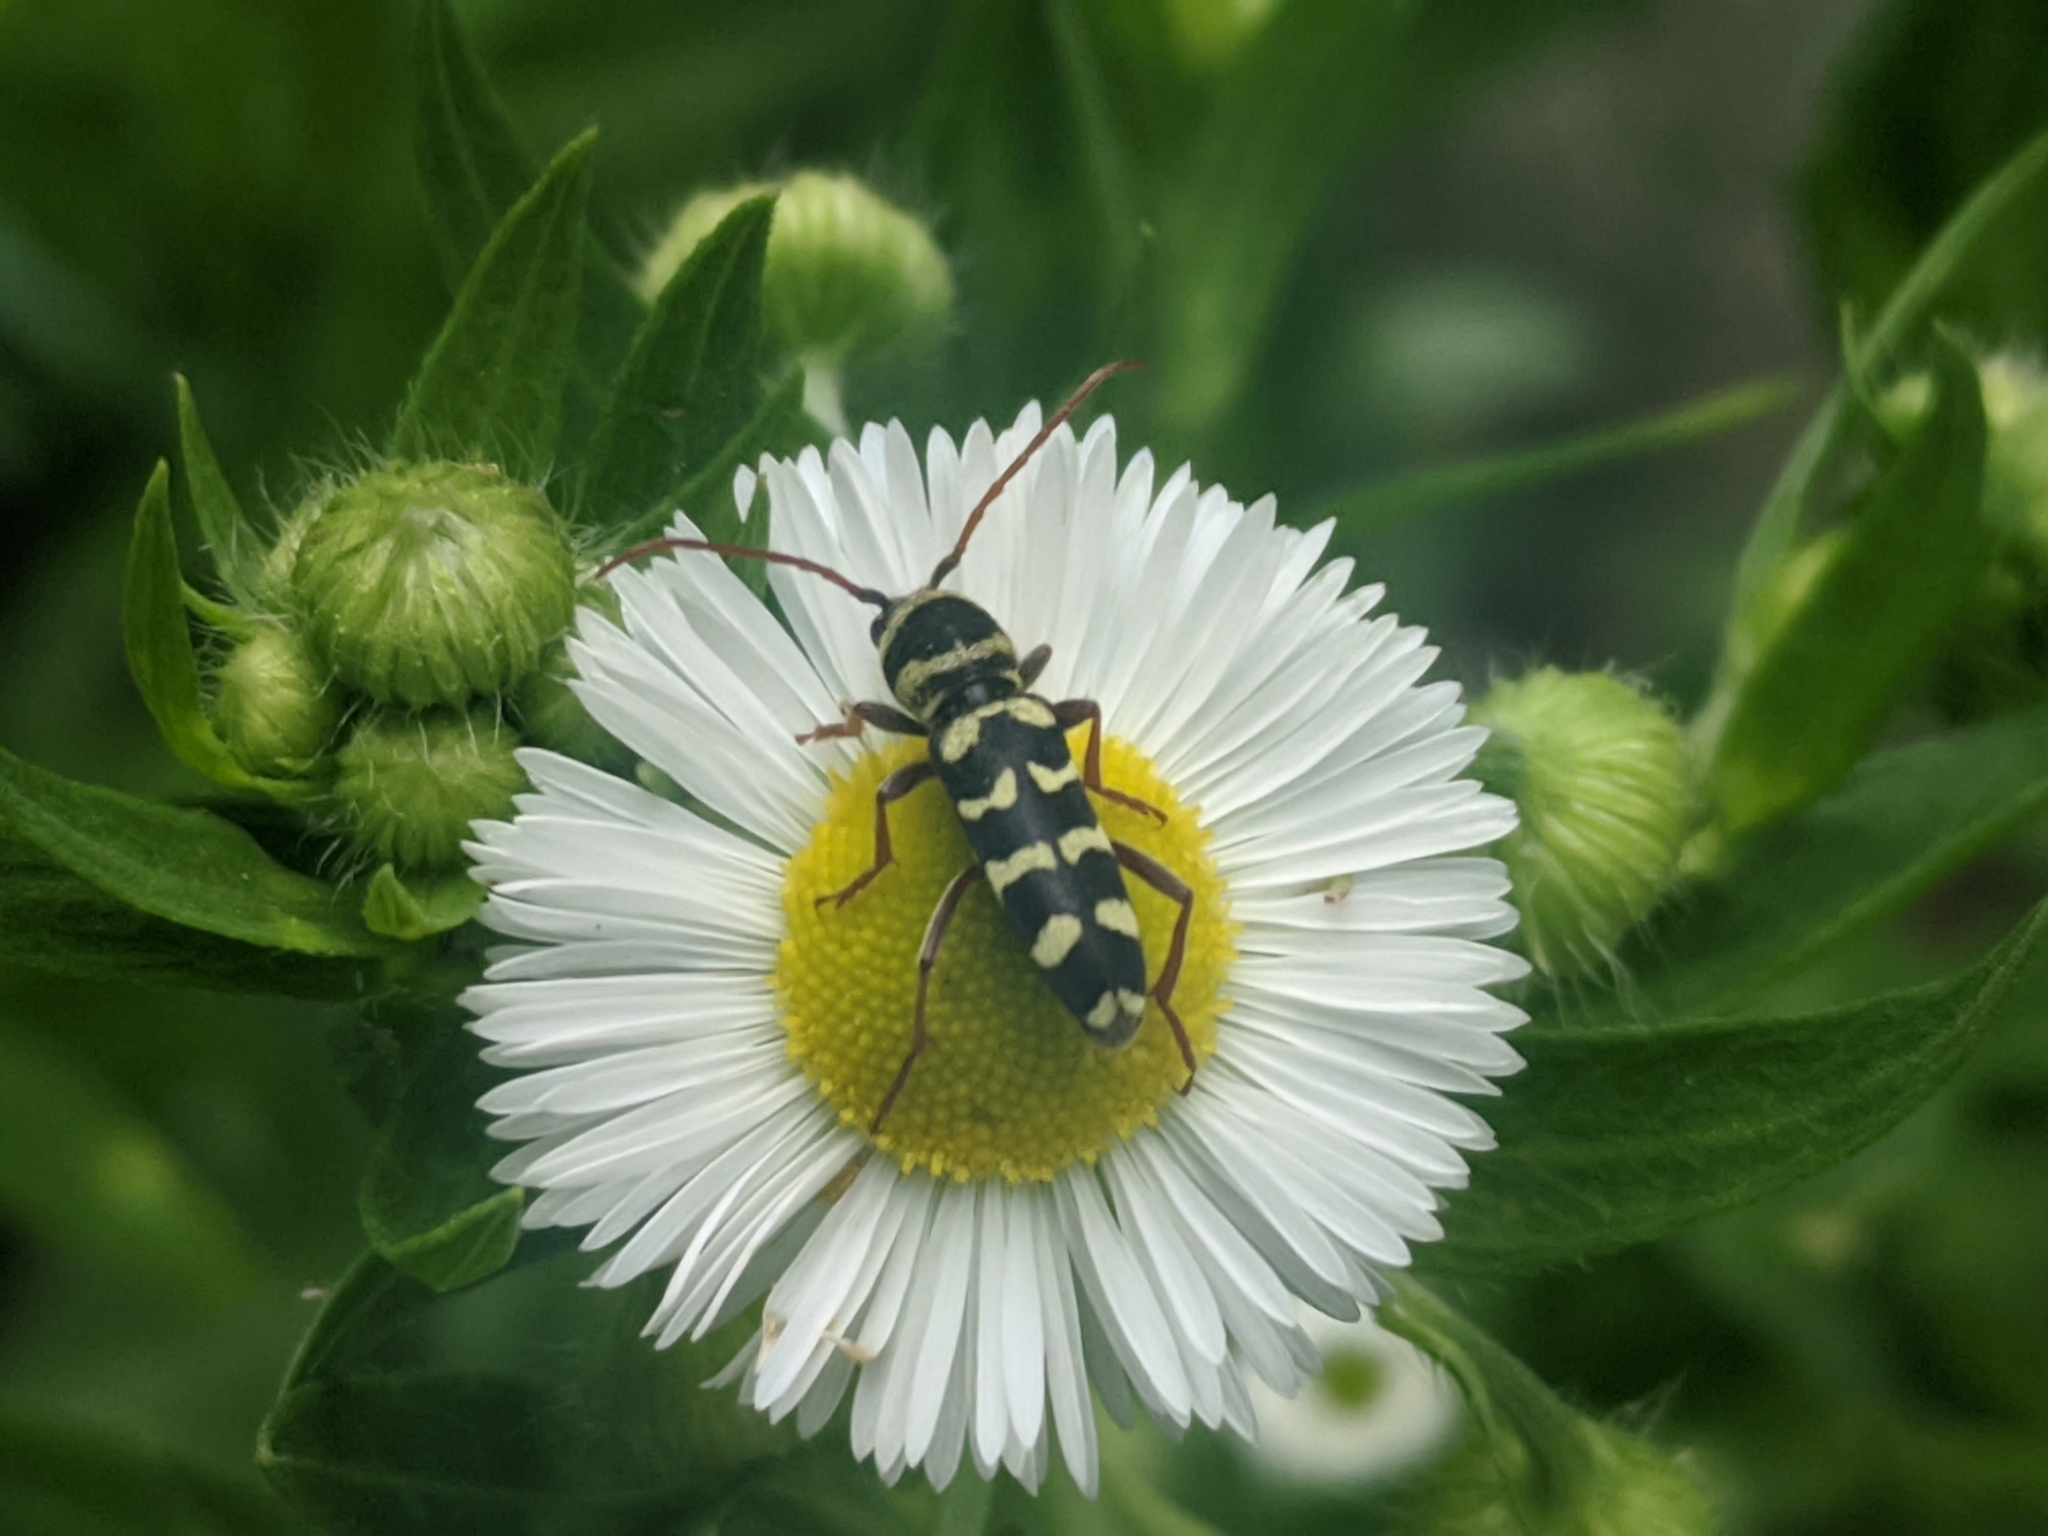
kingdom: Animalia
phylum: Arthropoda
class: Insecta
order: Coleoptera
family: Cerambycidae
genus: Plagionotus
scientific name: Plagionotus floralis
